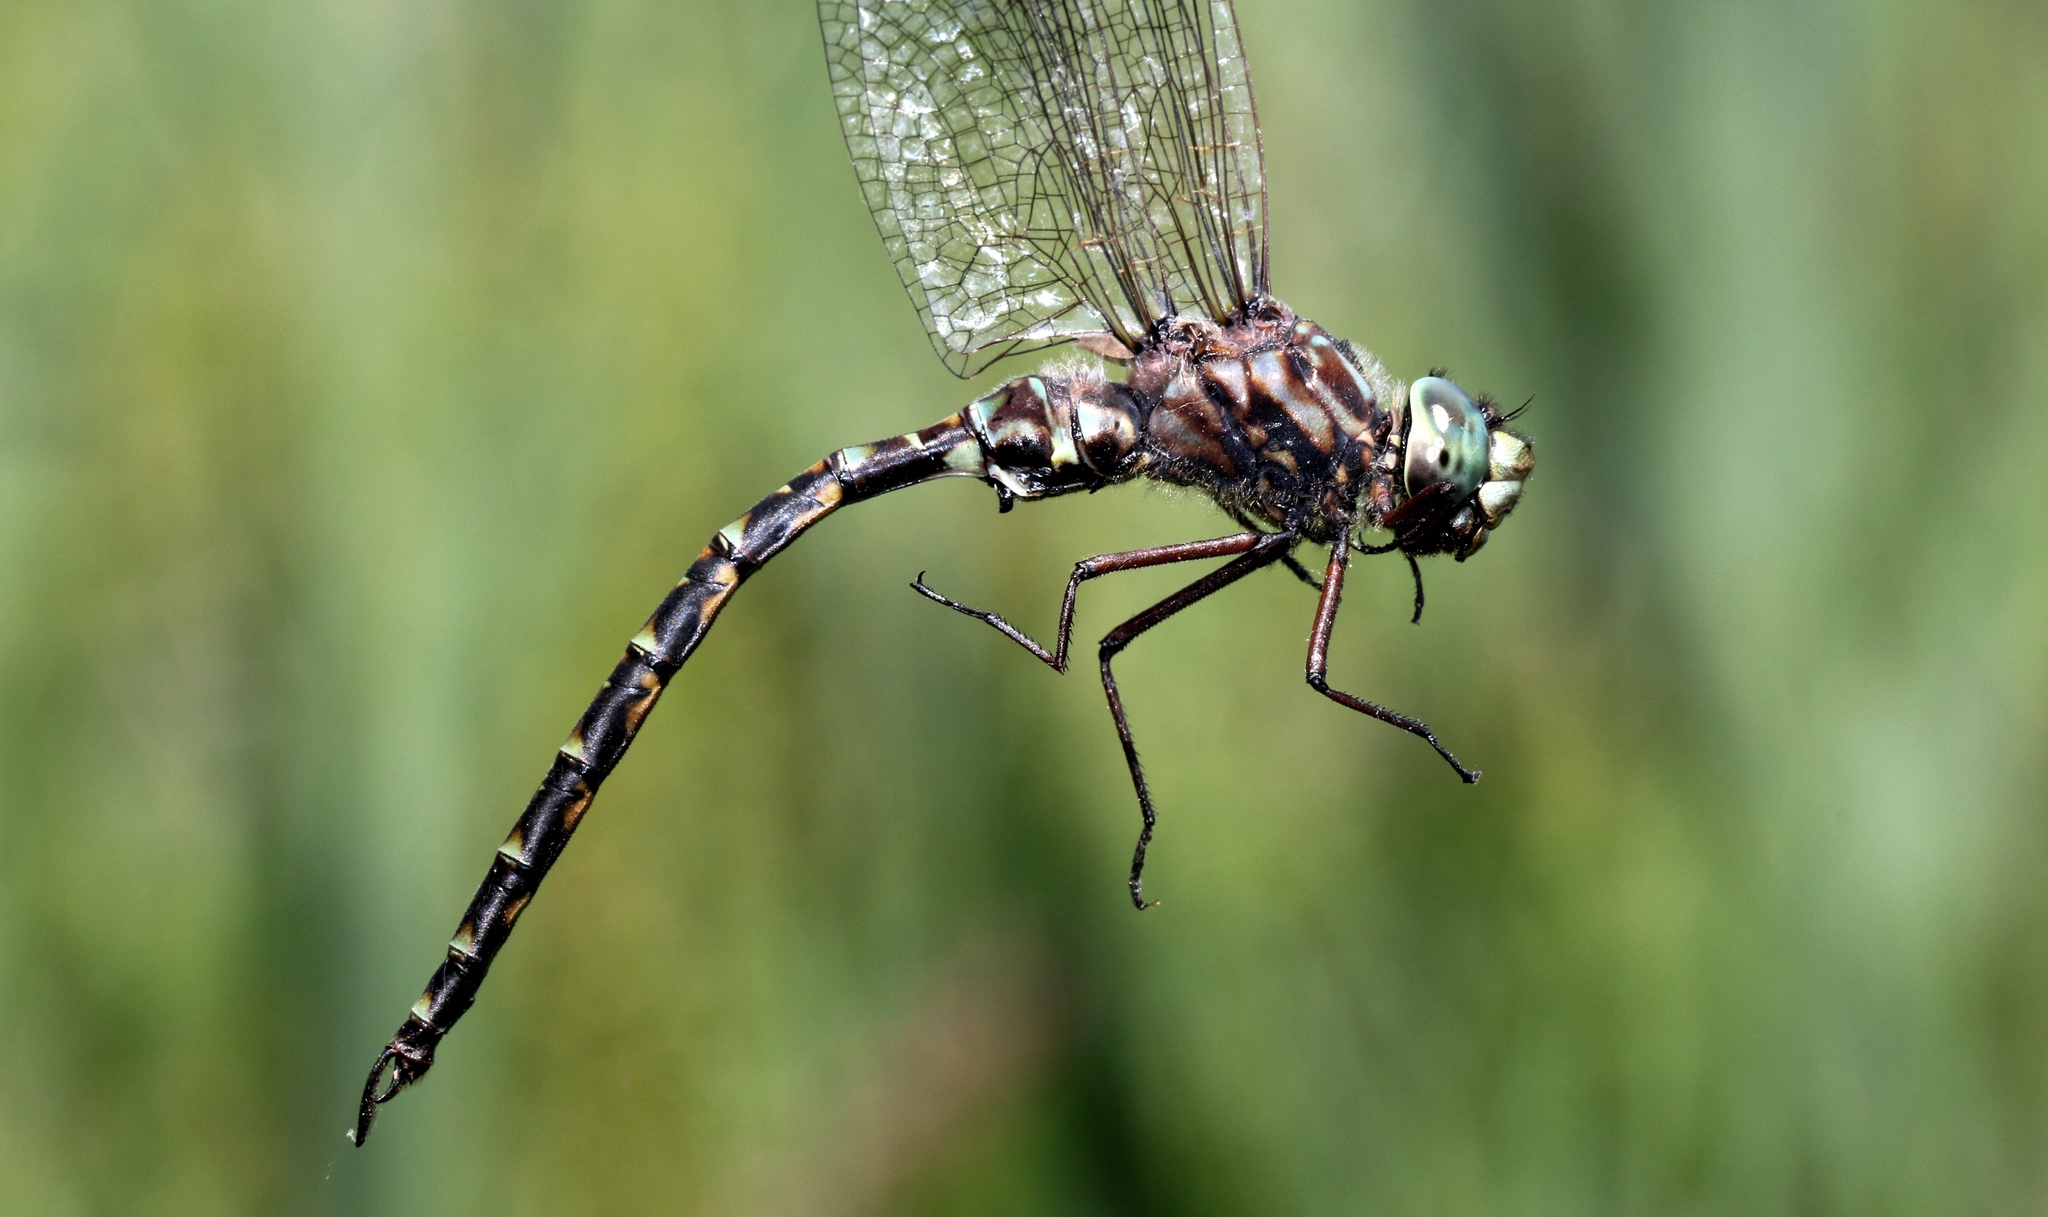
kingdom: Animalia
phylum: Arthropoda
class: Insecta
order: Odonata
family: Aeshnidae
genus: Gomphaeschna
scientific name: Gomphaeschna furcillata
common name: Harlequin darner
